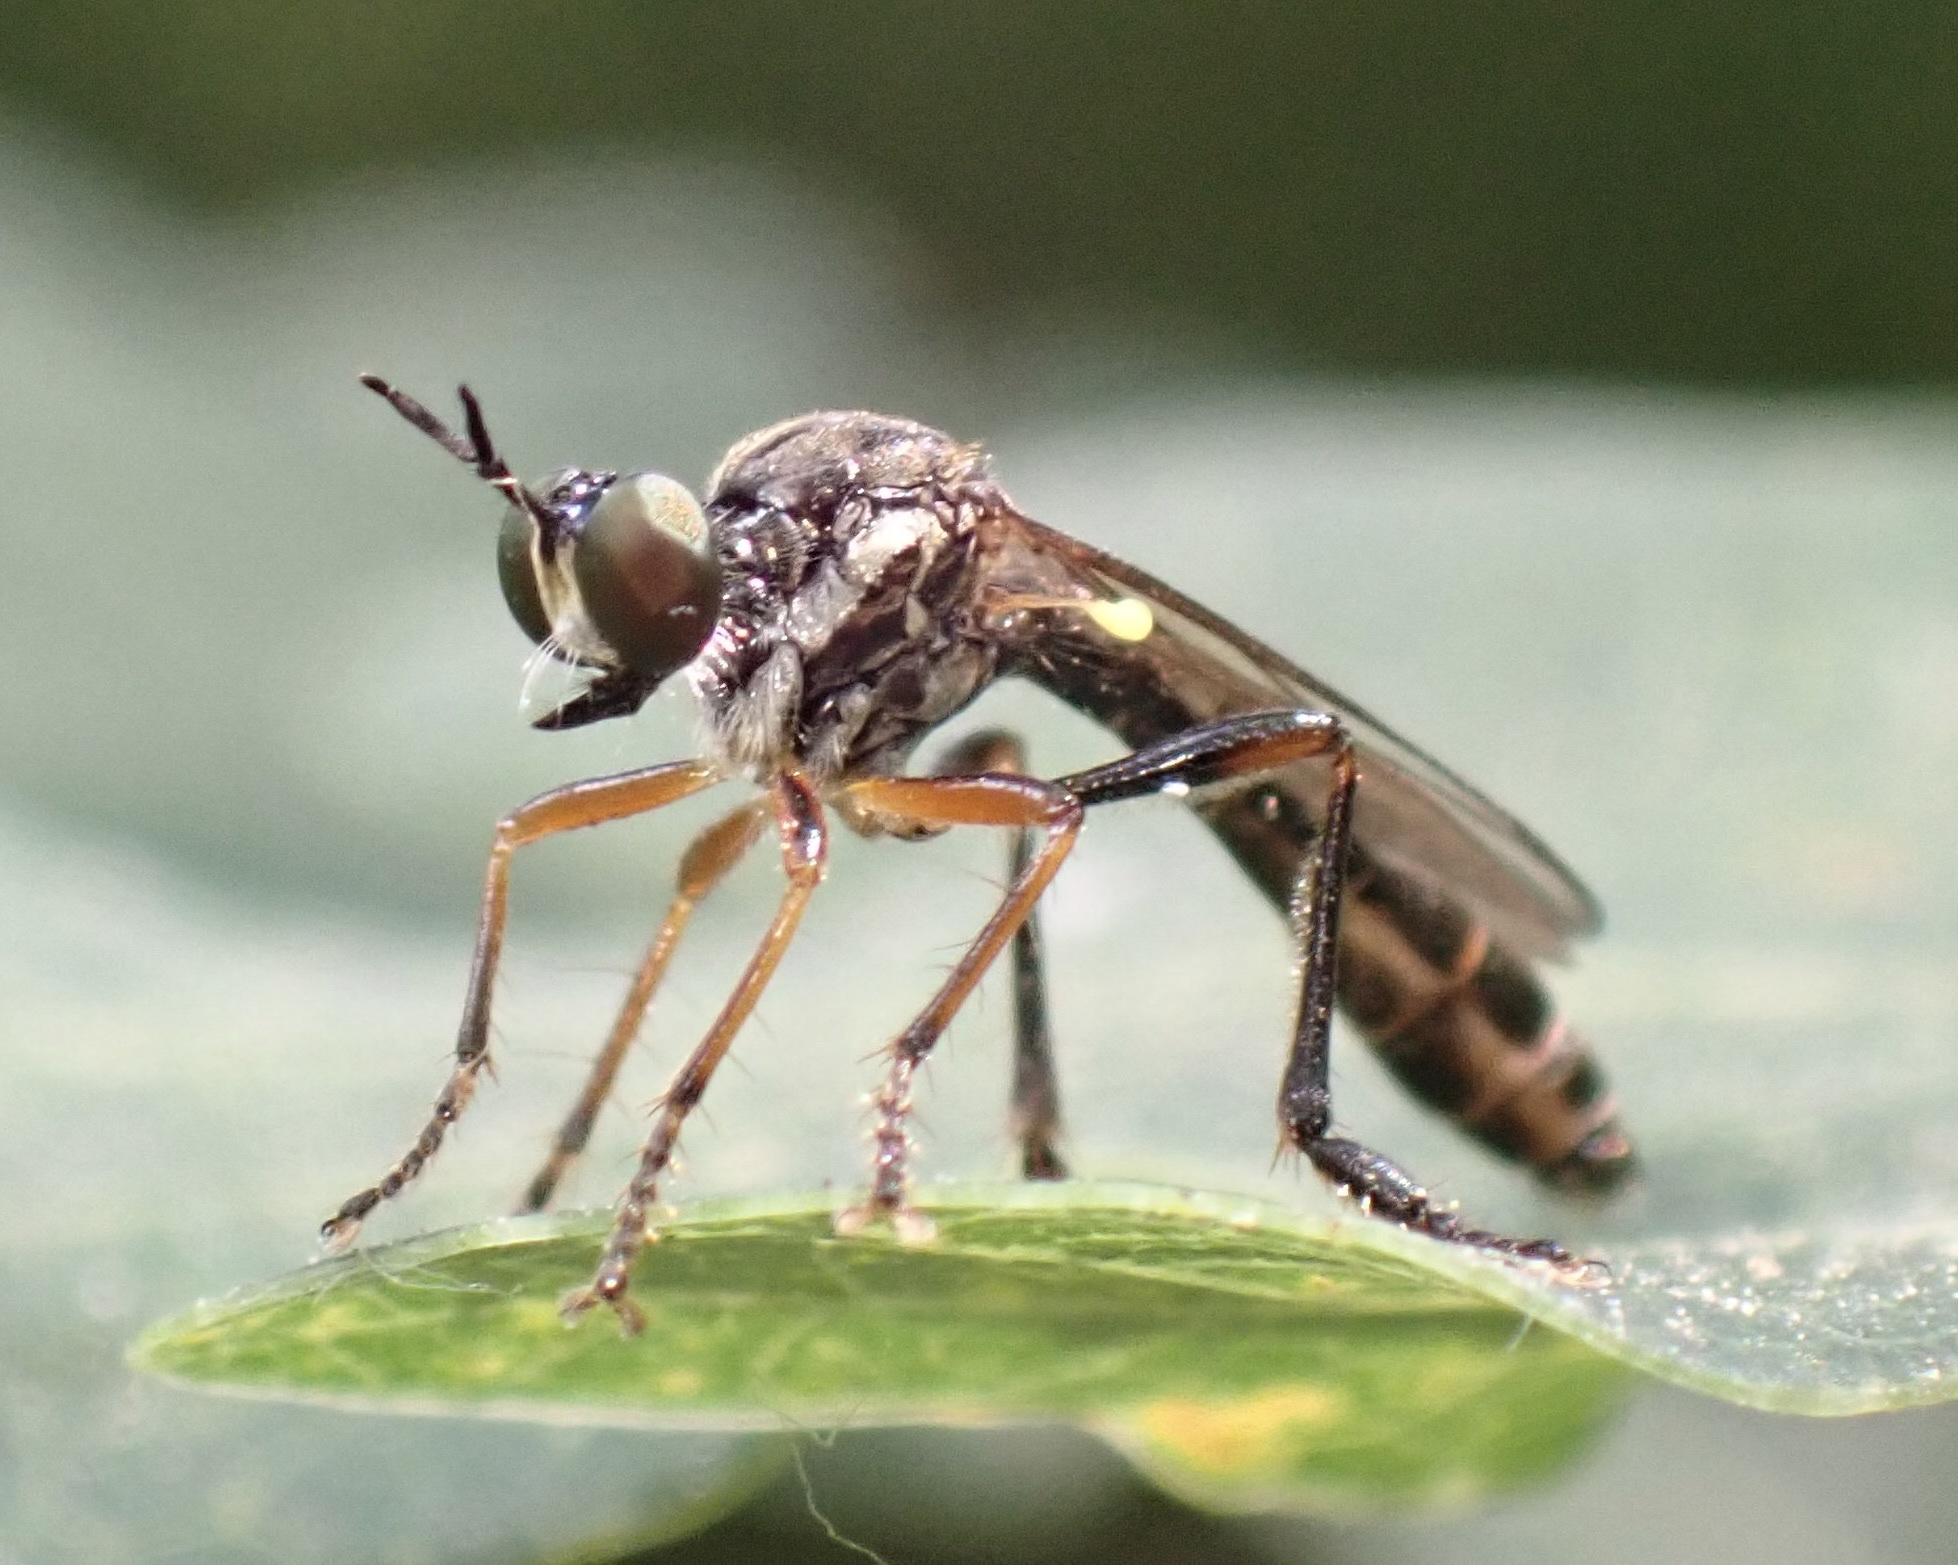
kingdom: Animalia
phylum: Arthropoda
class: Insecta
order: Diptera
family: Asilidae
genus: Dioctria
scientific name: Dioctria hyalipennis
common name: Stripe-legged robberfly
